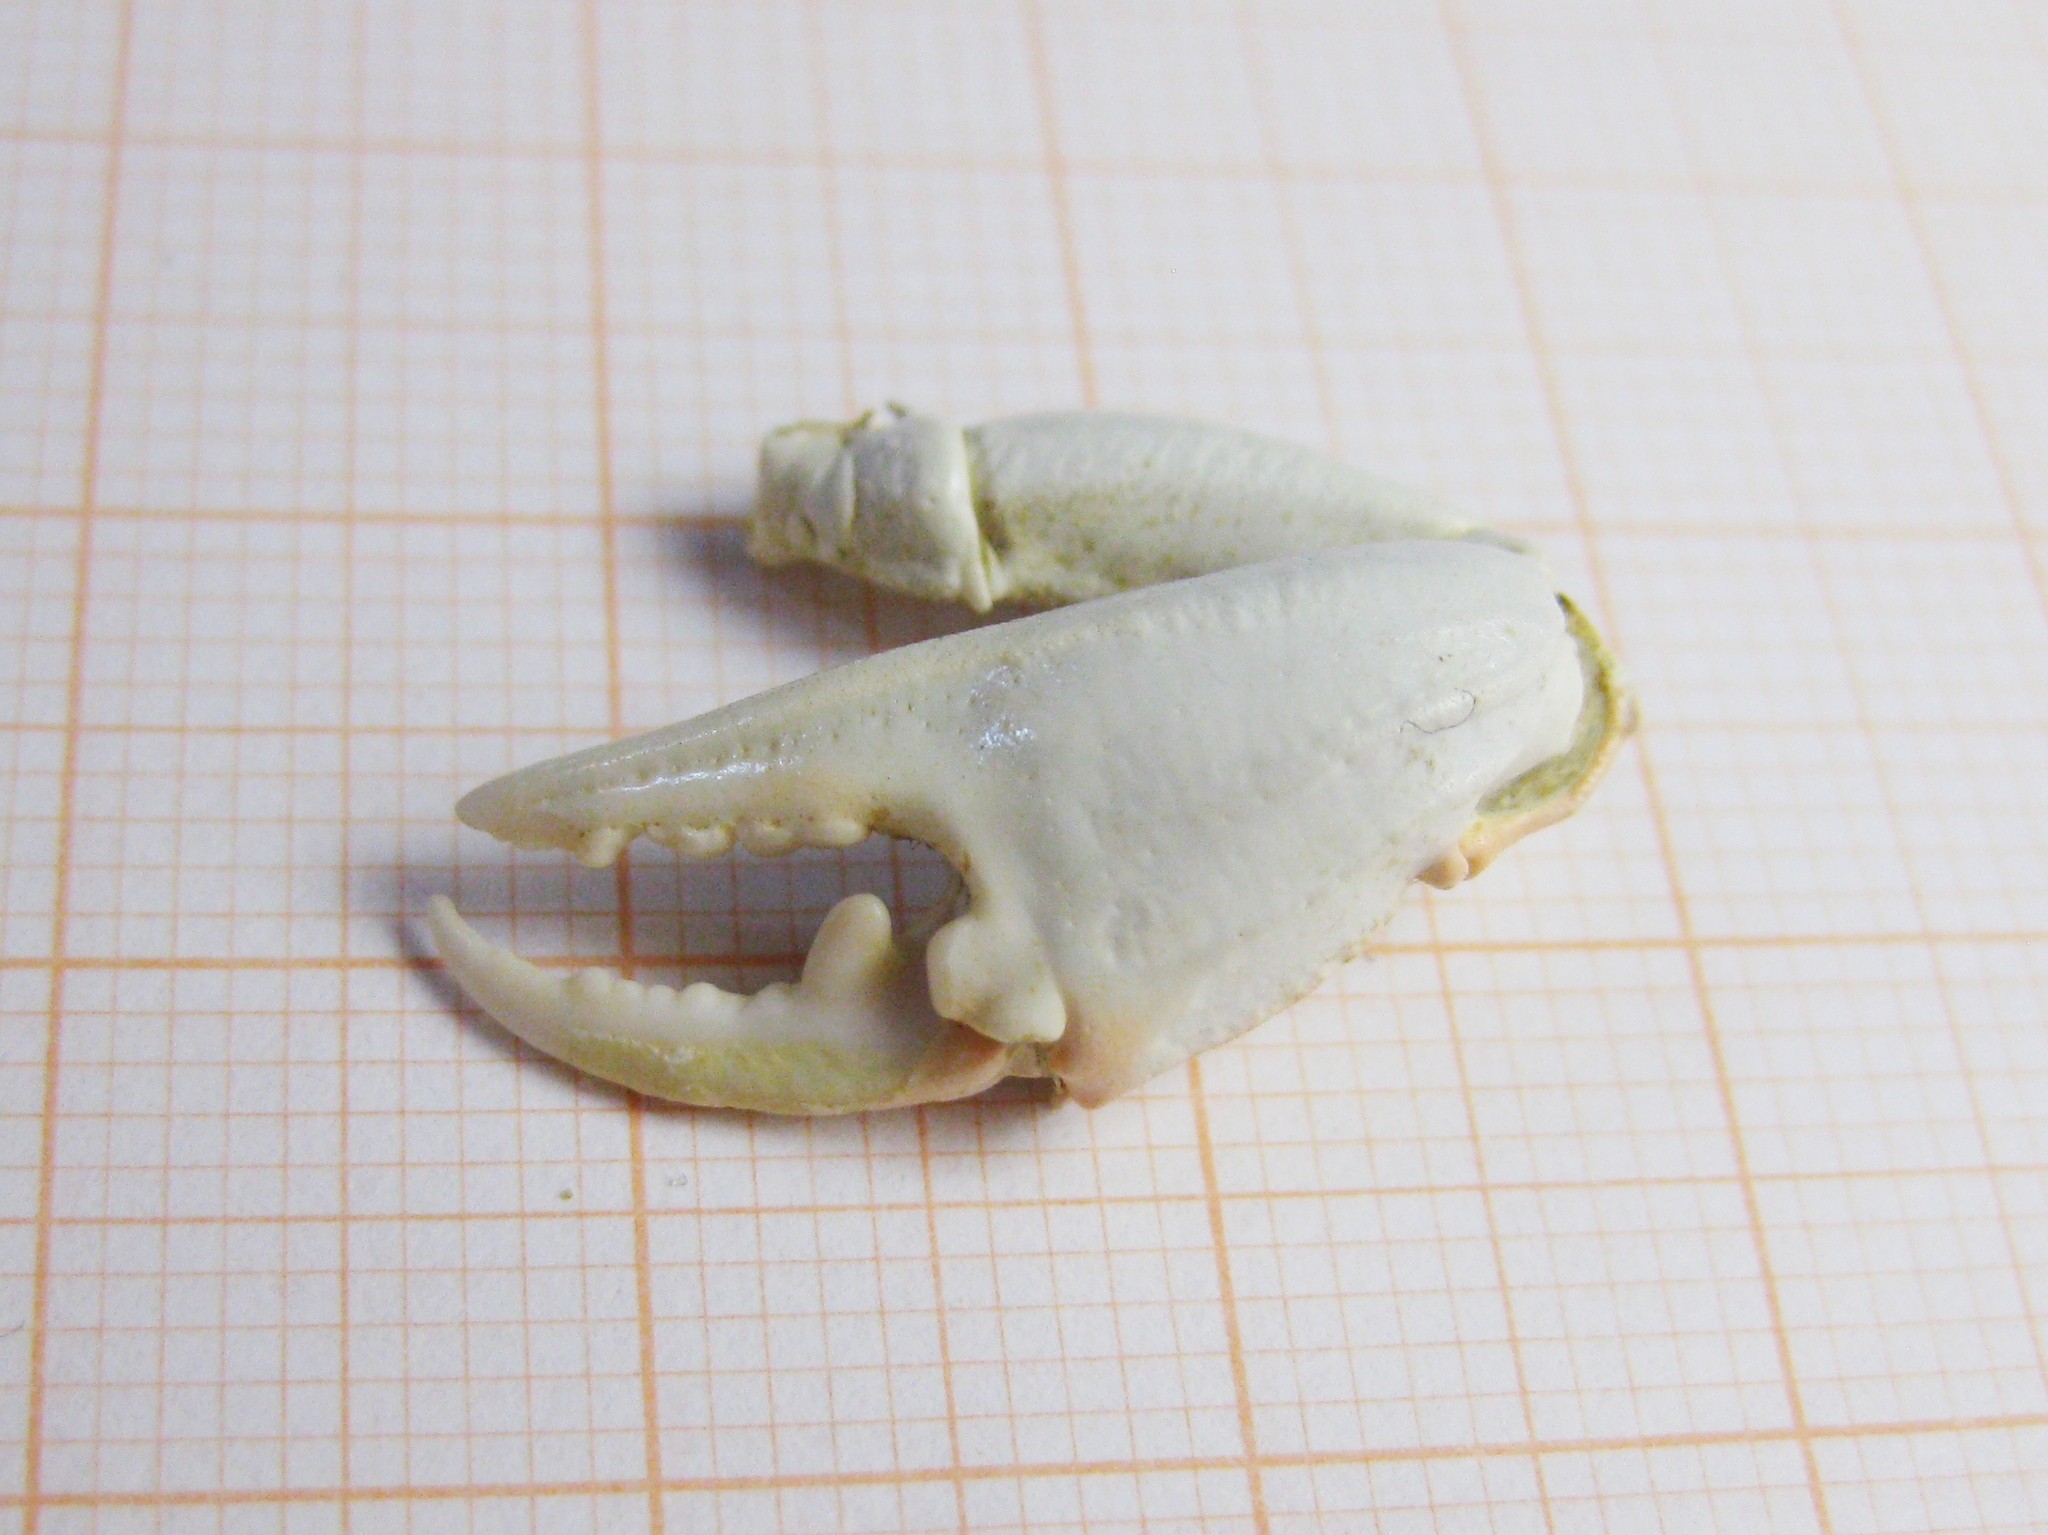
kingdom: Animalia
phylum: Arthropoda
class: Malacostraca
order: Decapoda
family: Carcinidae
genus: Carcinus
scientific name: Carcinus aestuarii
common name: Mediterranean green crab
